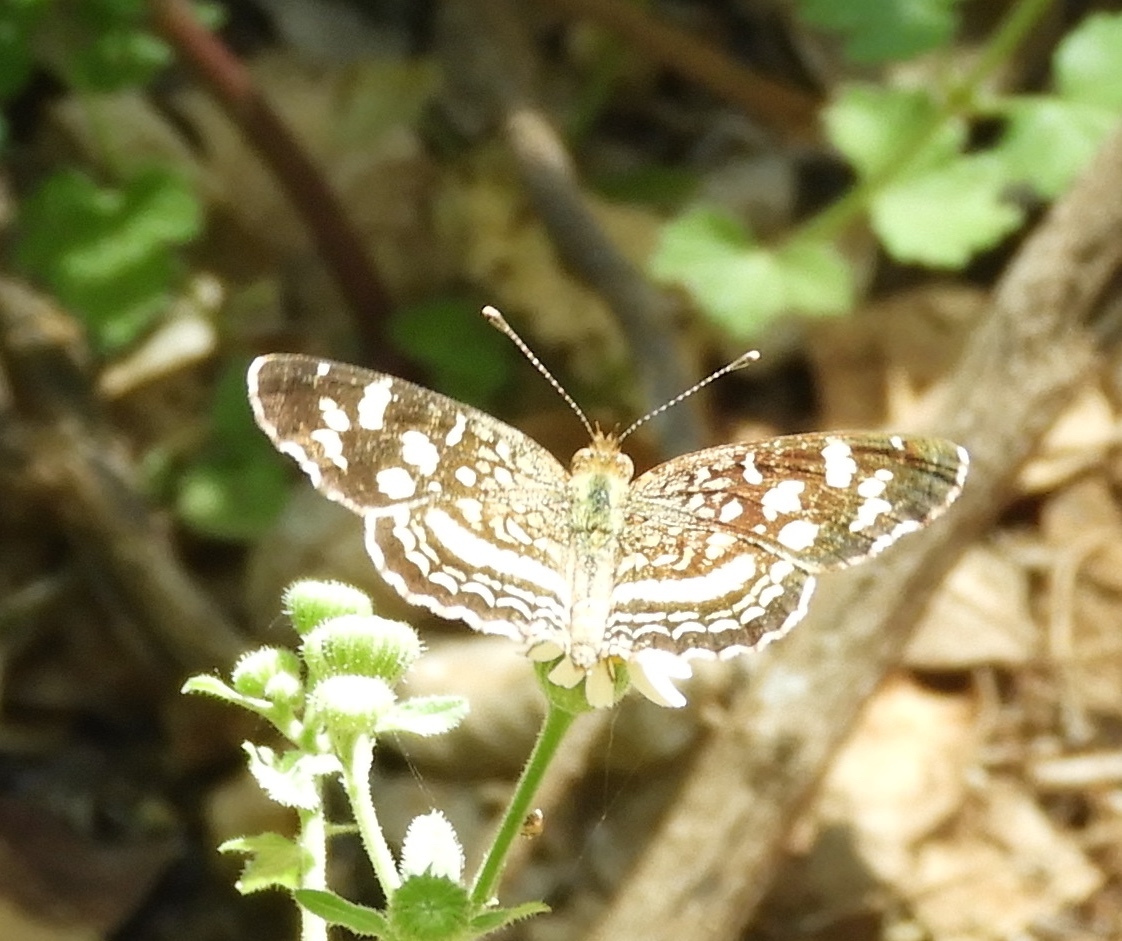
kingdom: Animalia
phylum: Arthropoda
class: Insecta
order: Lepidoptera
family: Nymphalidae
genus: Anthanassa
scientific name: Anthanassa tulcis
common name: Pale-banded crescent
